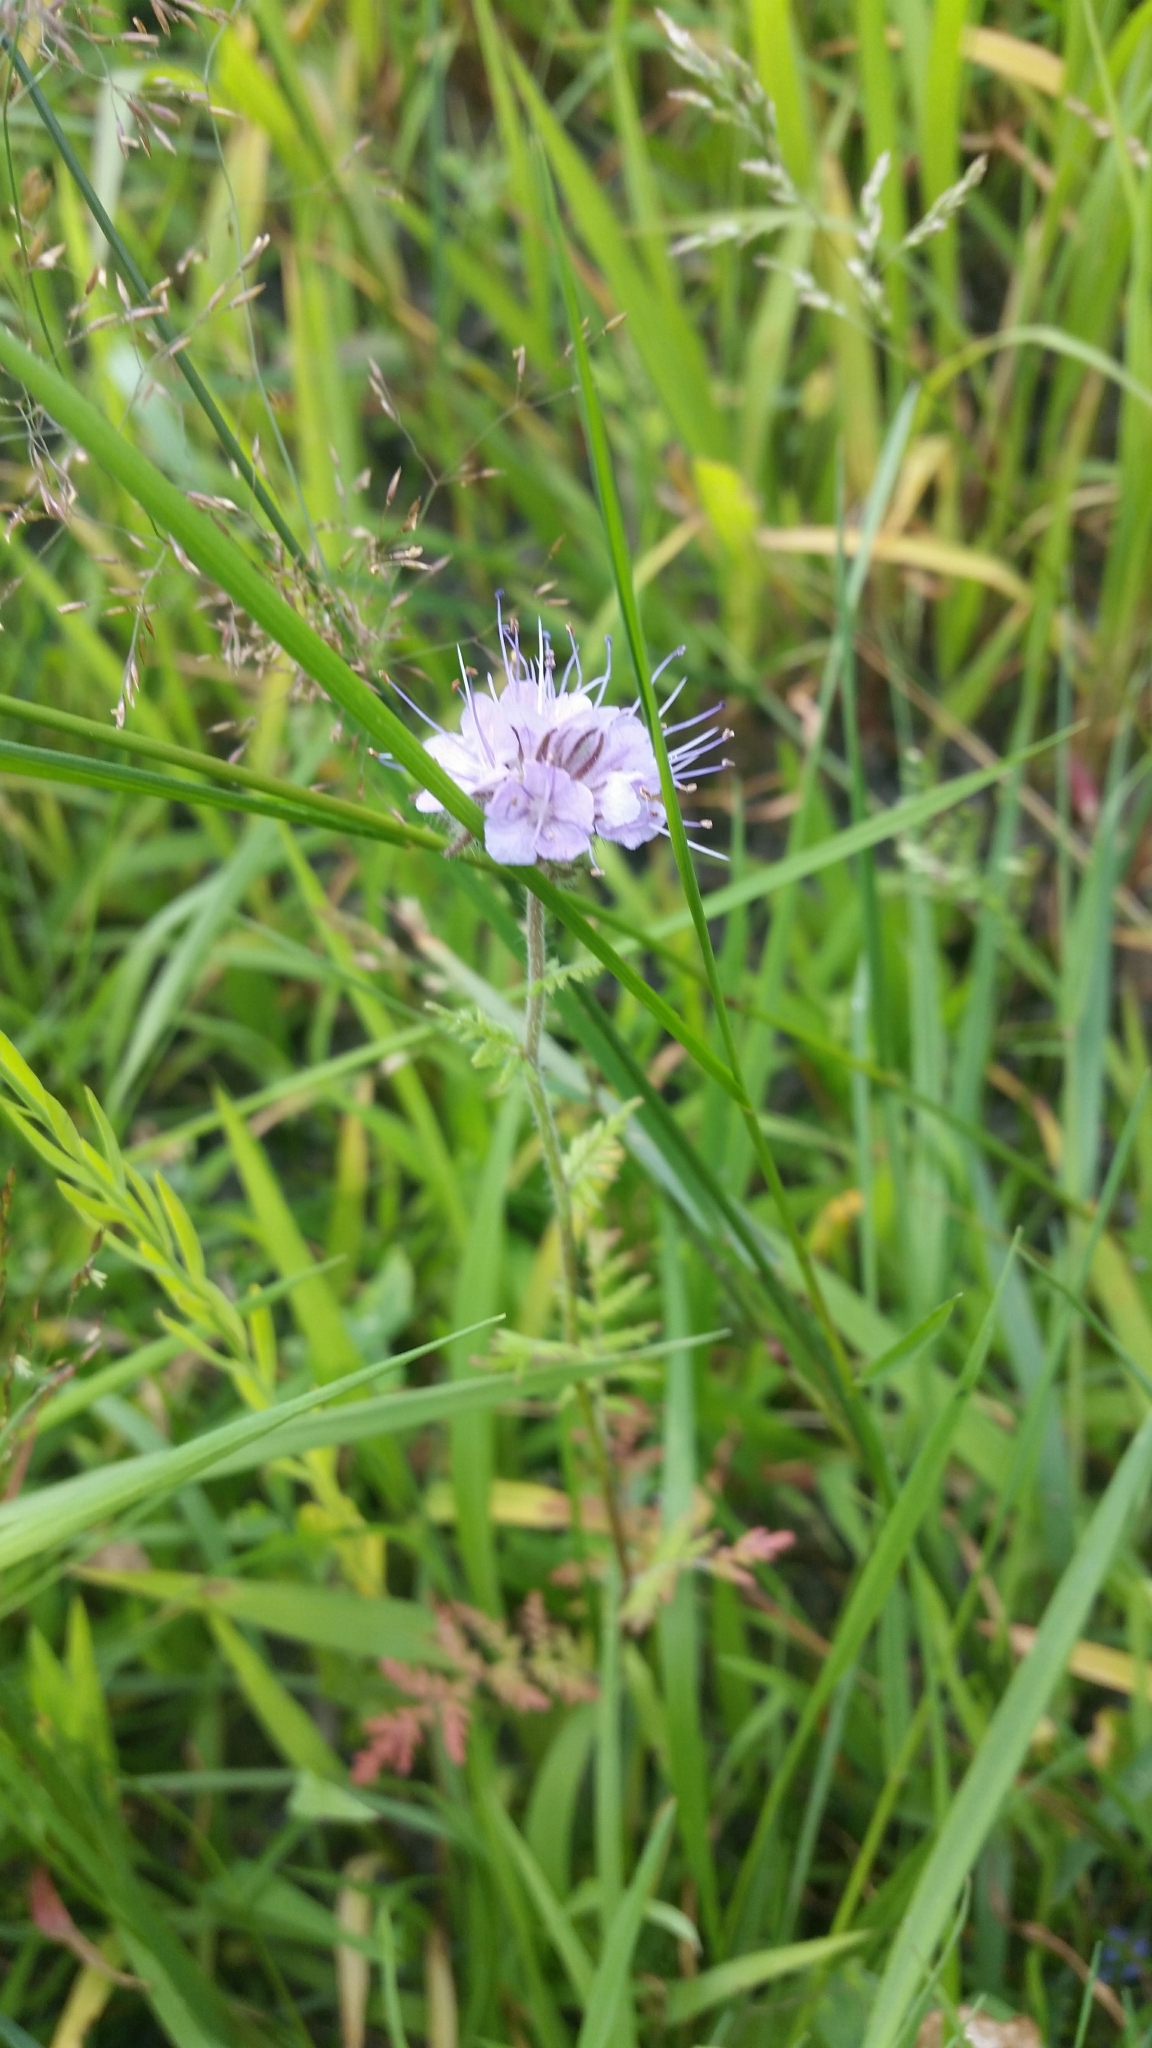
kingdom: Plantae
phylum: Tracheophyta
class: Magnoliopsida
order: Boraginales
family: Hydrophyllaceae
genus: Phacelia
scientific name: Phacelia tanacetifolia
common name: Phacelia
